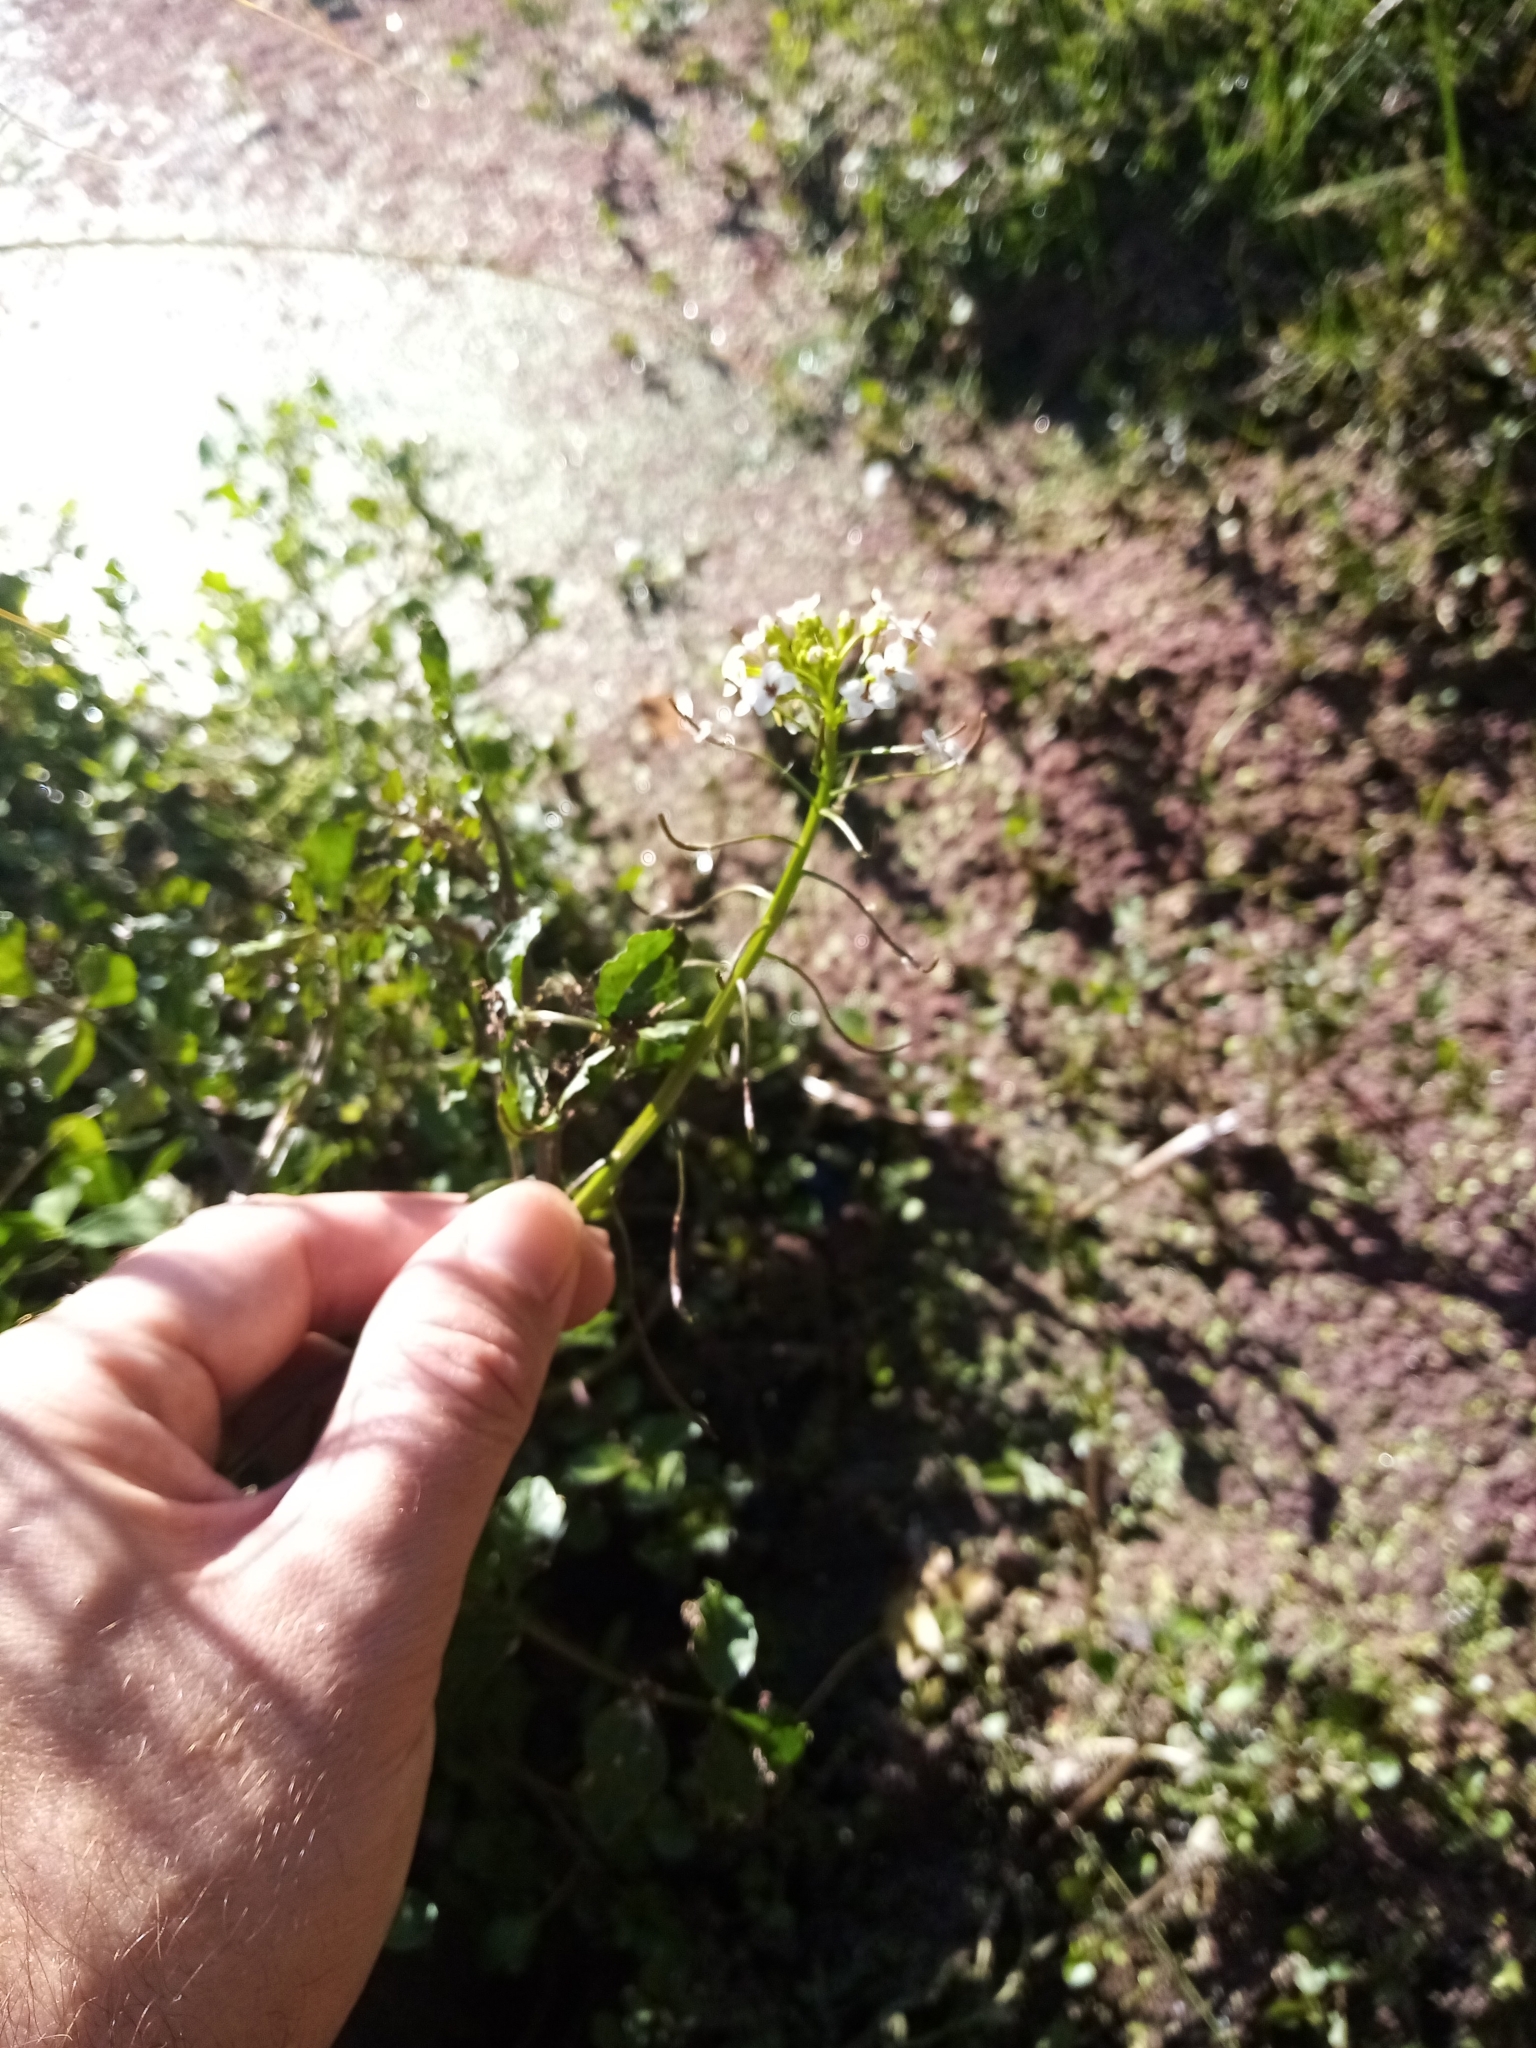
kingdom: Plantae
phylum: Tracheophyta
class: Magnoliopsida
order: Brassicales
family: Brassicaceae
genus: Nasturtium
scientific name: Nasturtium microphyllum
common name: Onerow yellowcress
